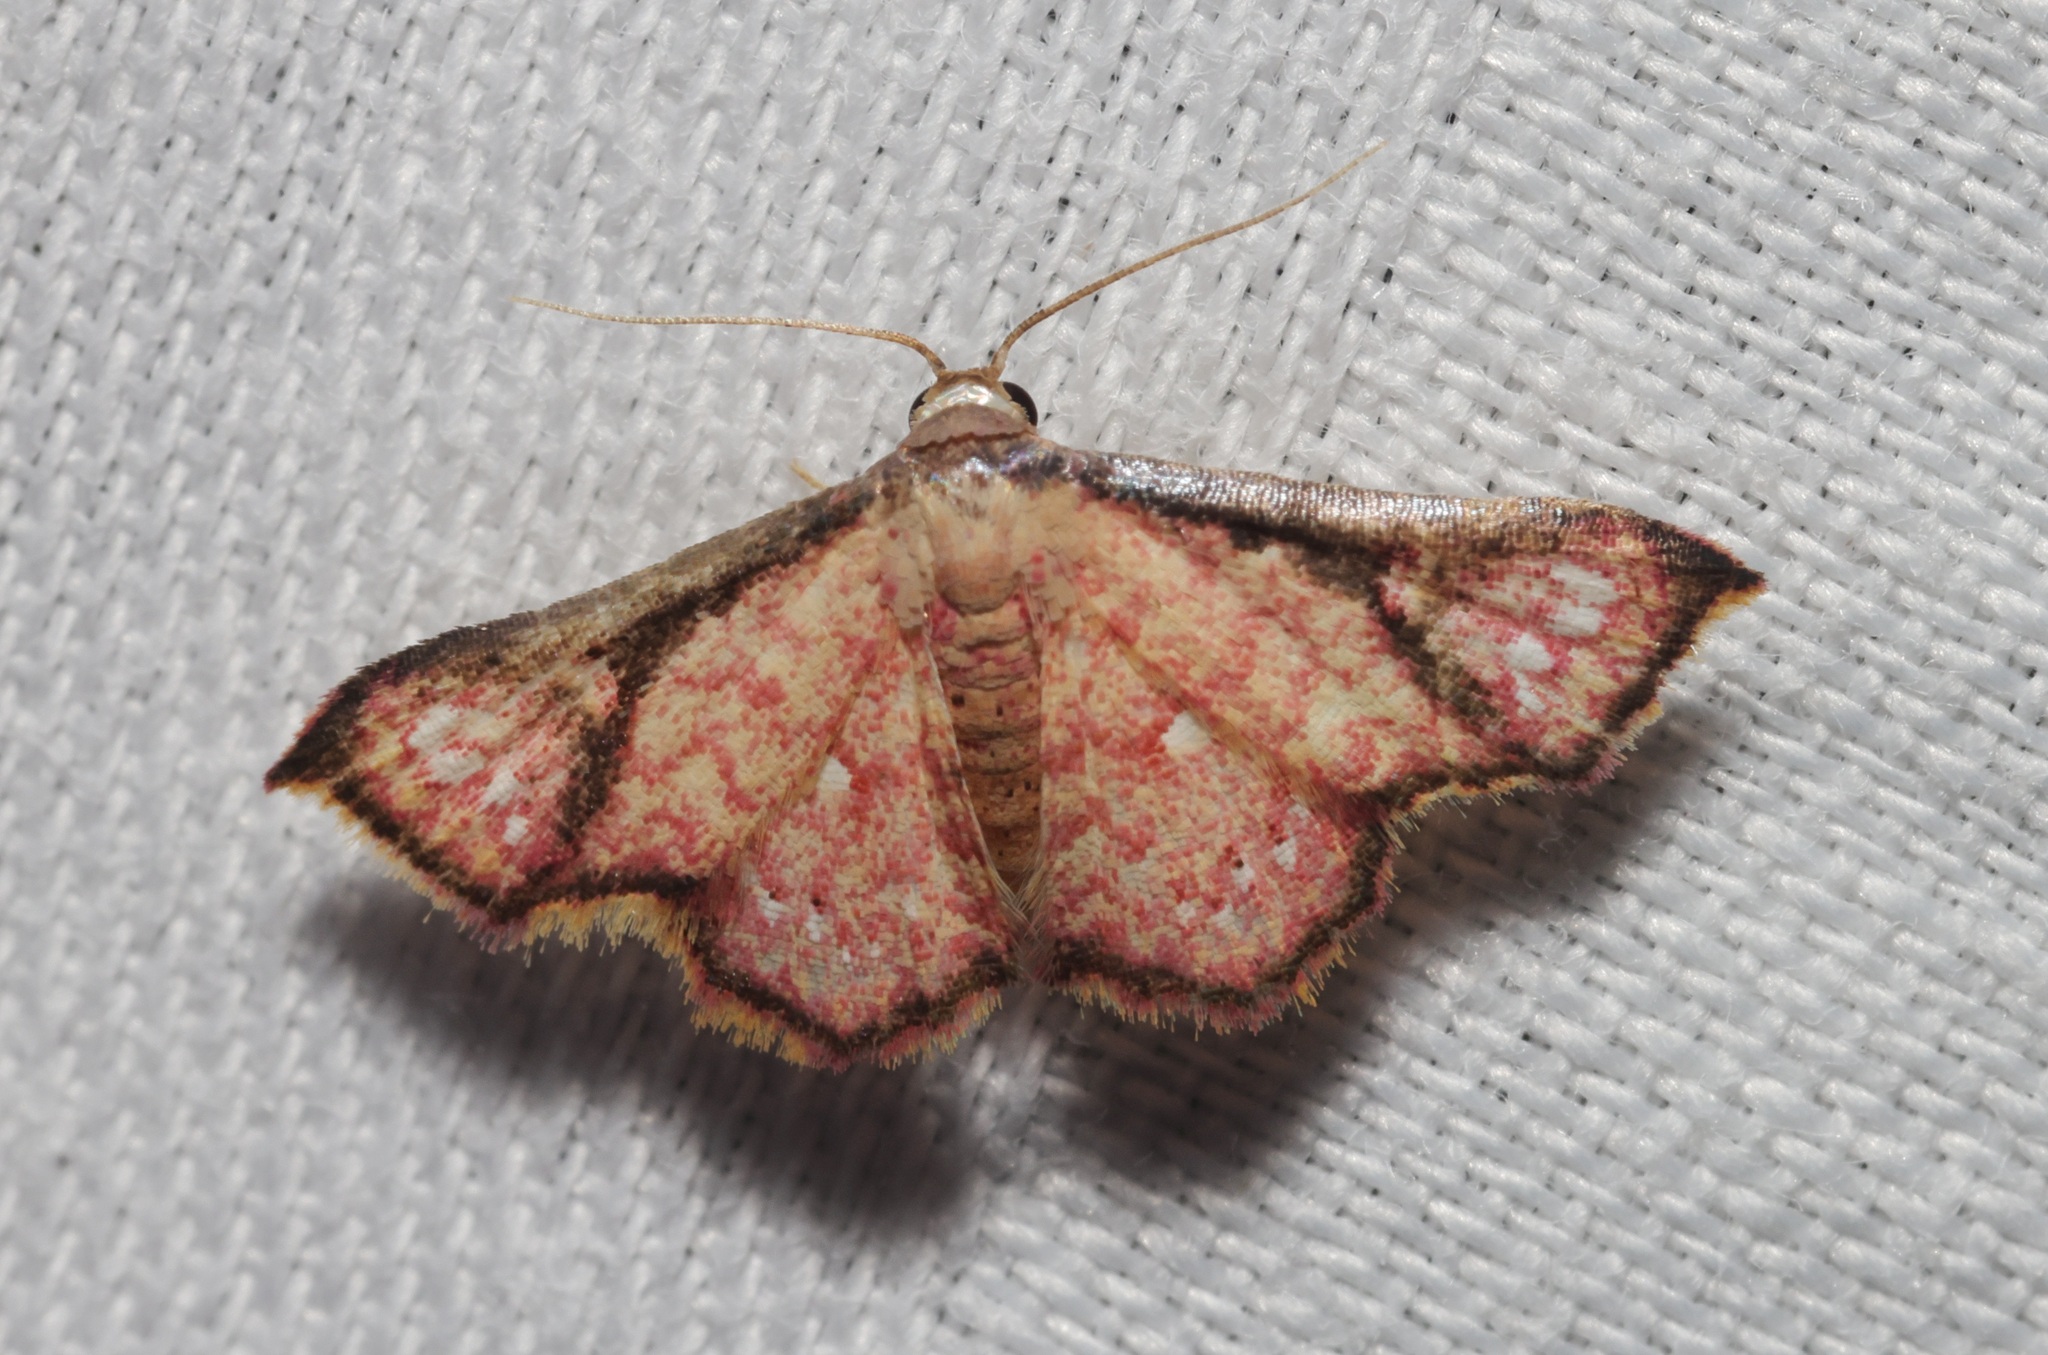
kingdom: Animalia
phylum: Arthropoda
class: Insecta
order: Lepidoptera
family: Noctuidae
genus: Enispa
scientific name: Enispa elataria
